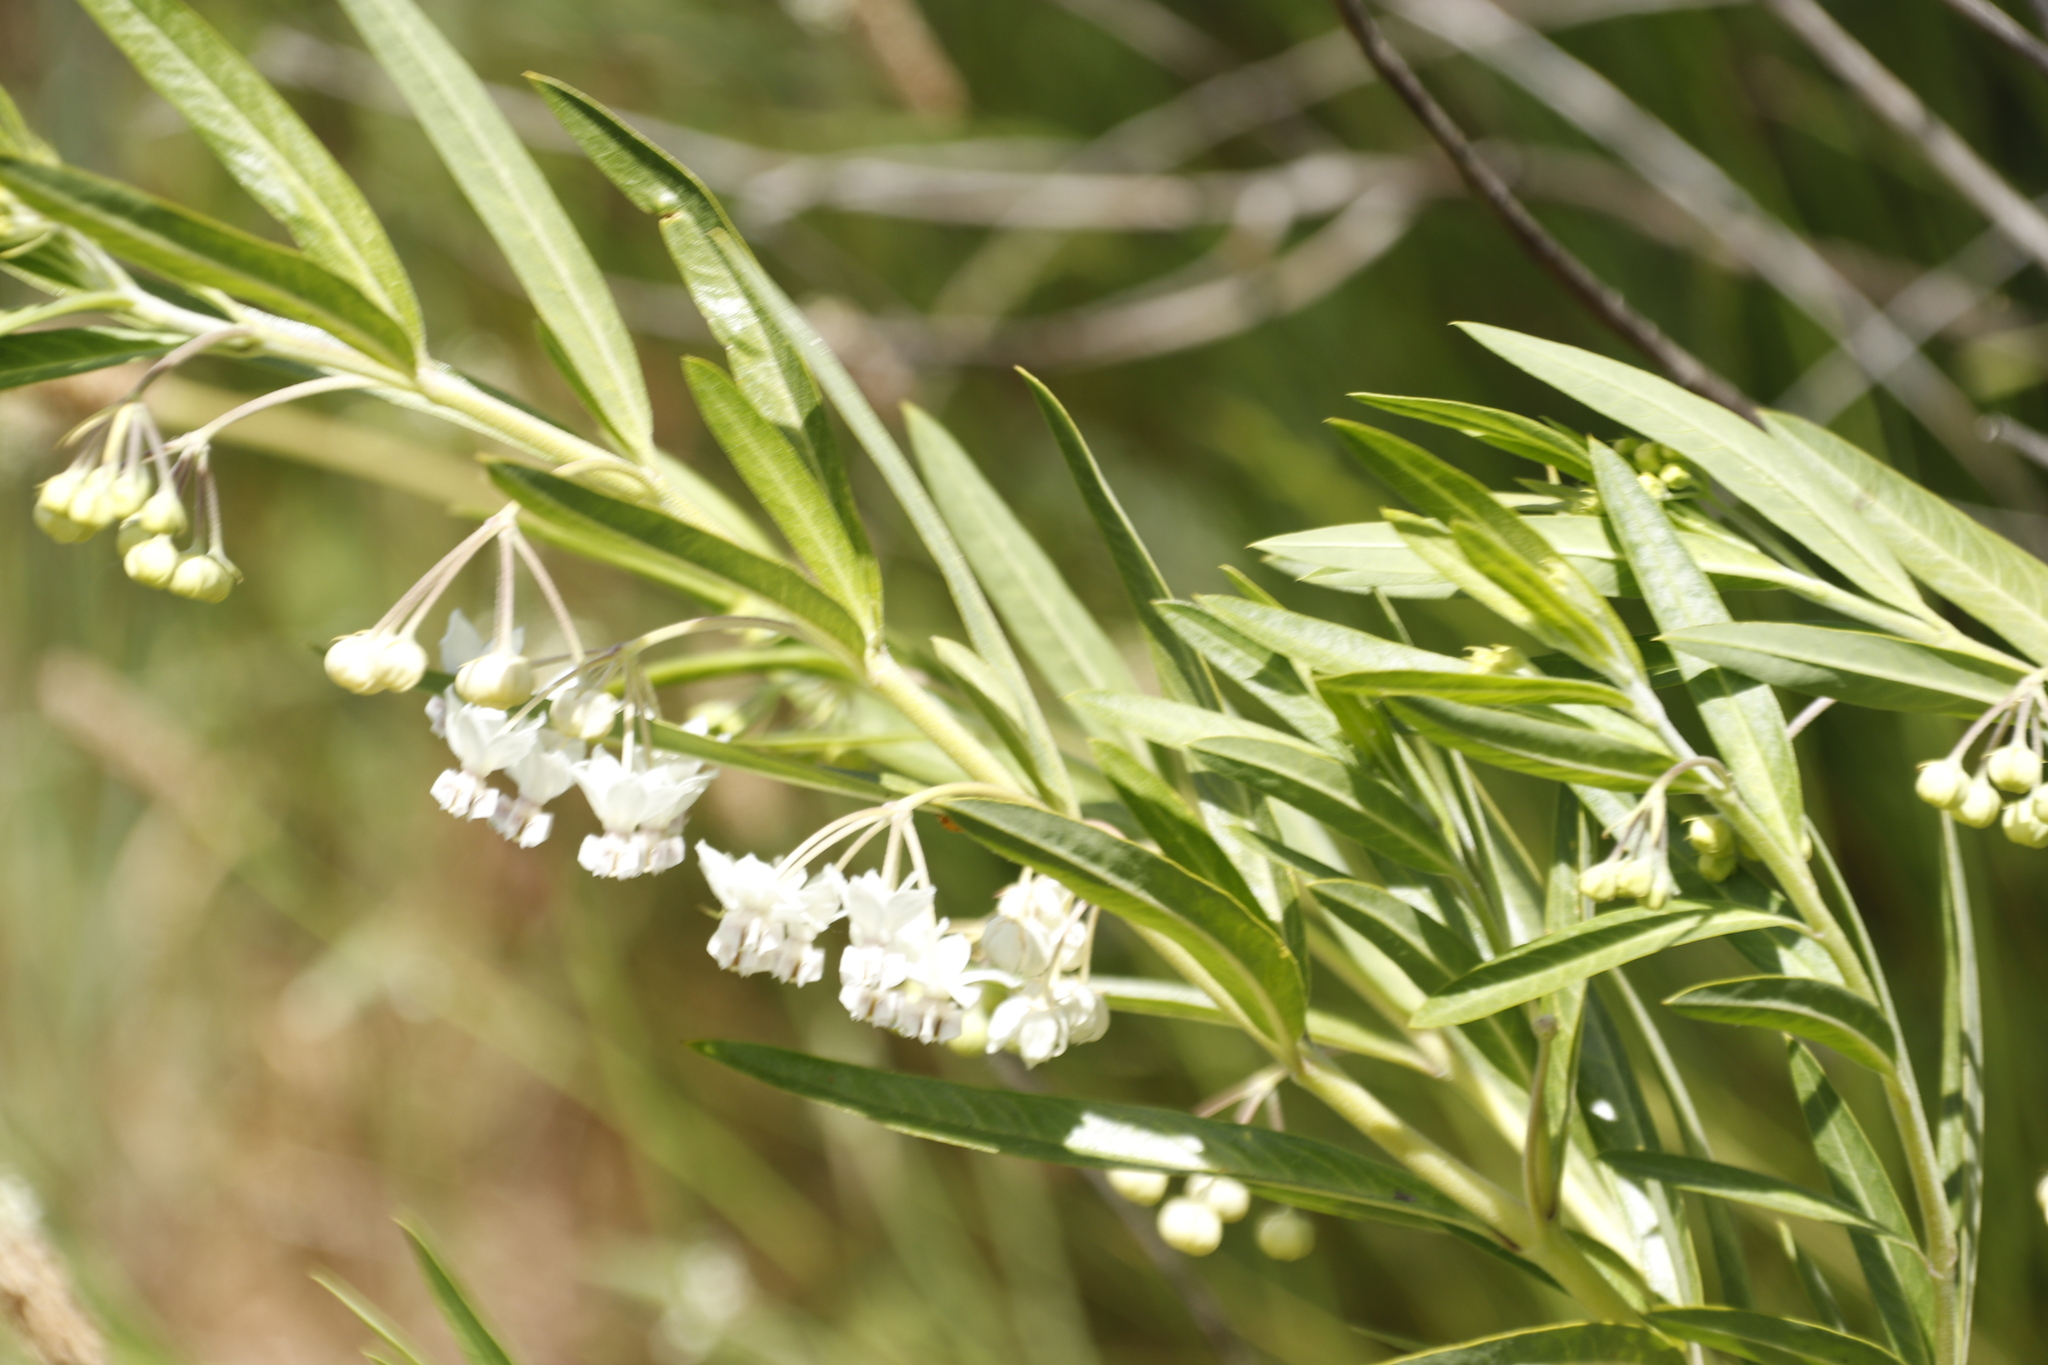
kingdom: Plantae
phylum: Tracheophyta
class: Magnoliopsida
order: Gentianales
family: Apocynaceae
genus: Gomphocarpus
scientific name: Gomphocarpus physocarpus
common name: Balloon cotton bush
